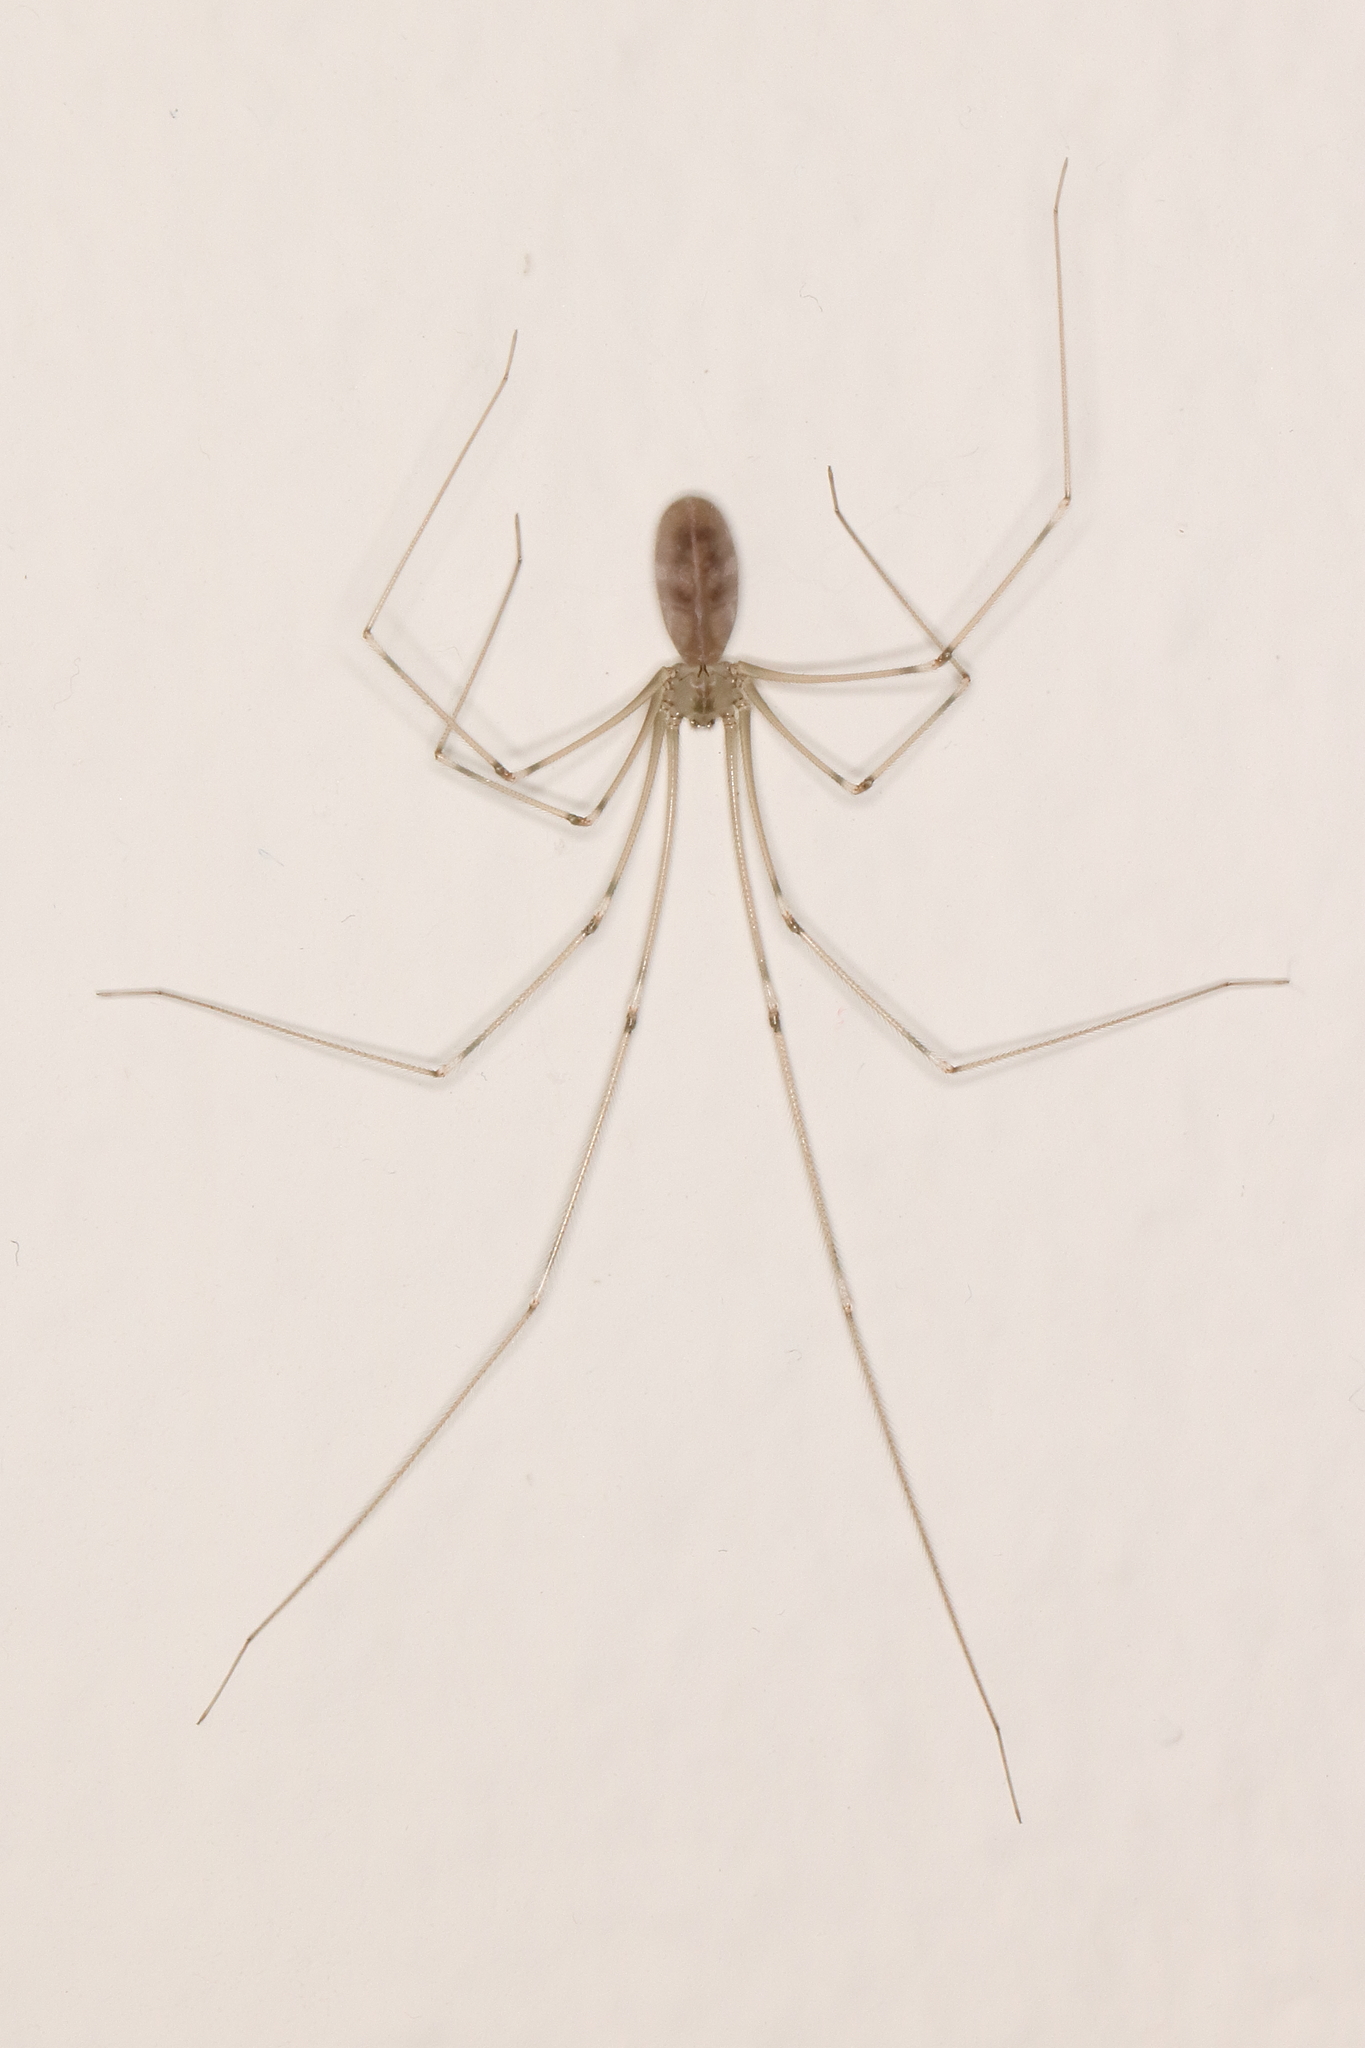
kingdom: Animalia
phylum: Arthropoda
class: Arachnida
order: Araneae
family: Pholcidae
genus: Pholcus
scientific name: Pholcus phalangioides
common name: Longbodied cellar spider
